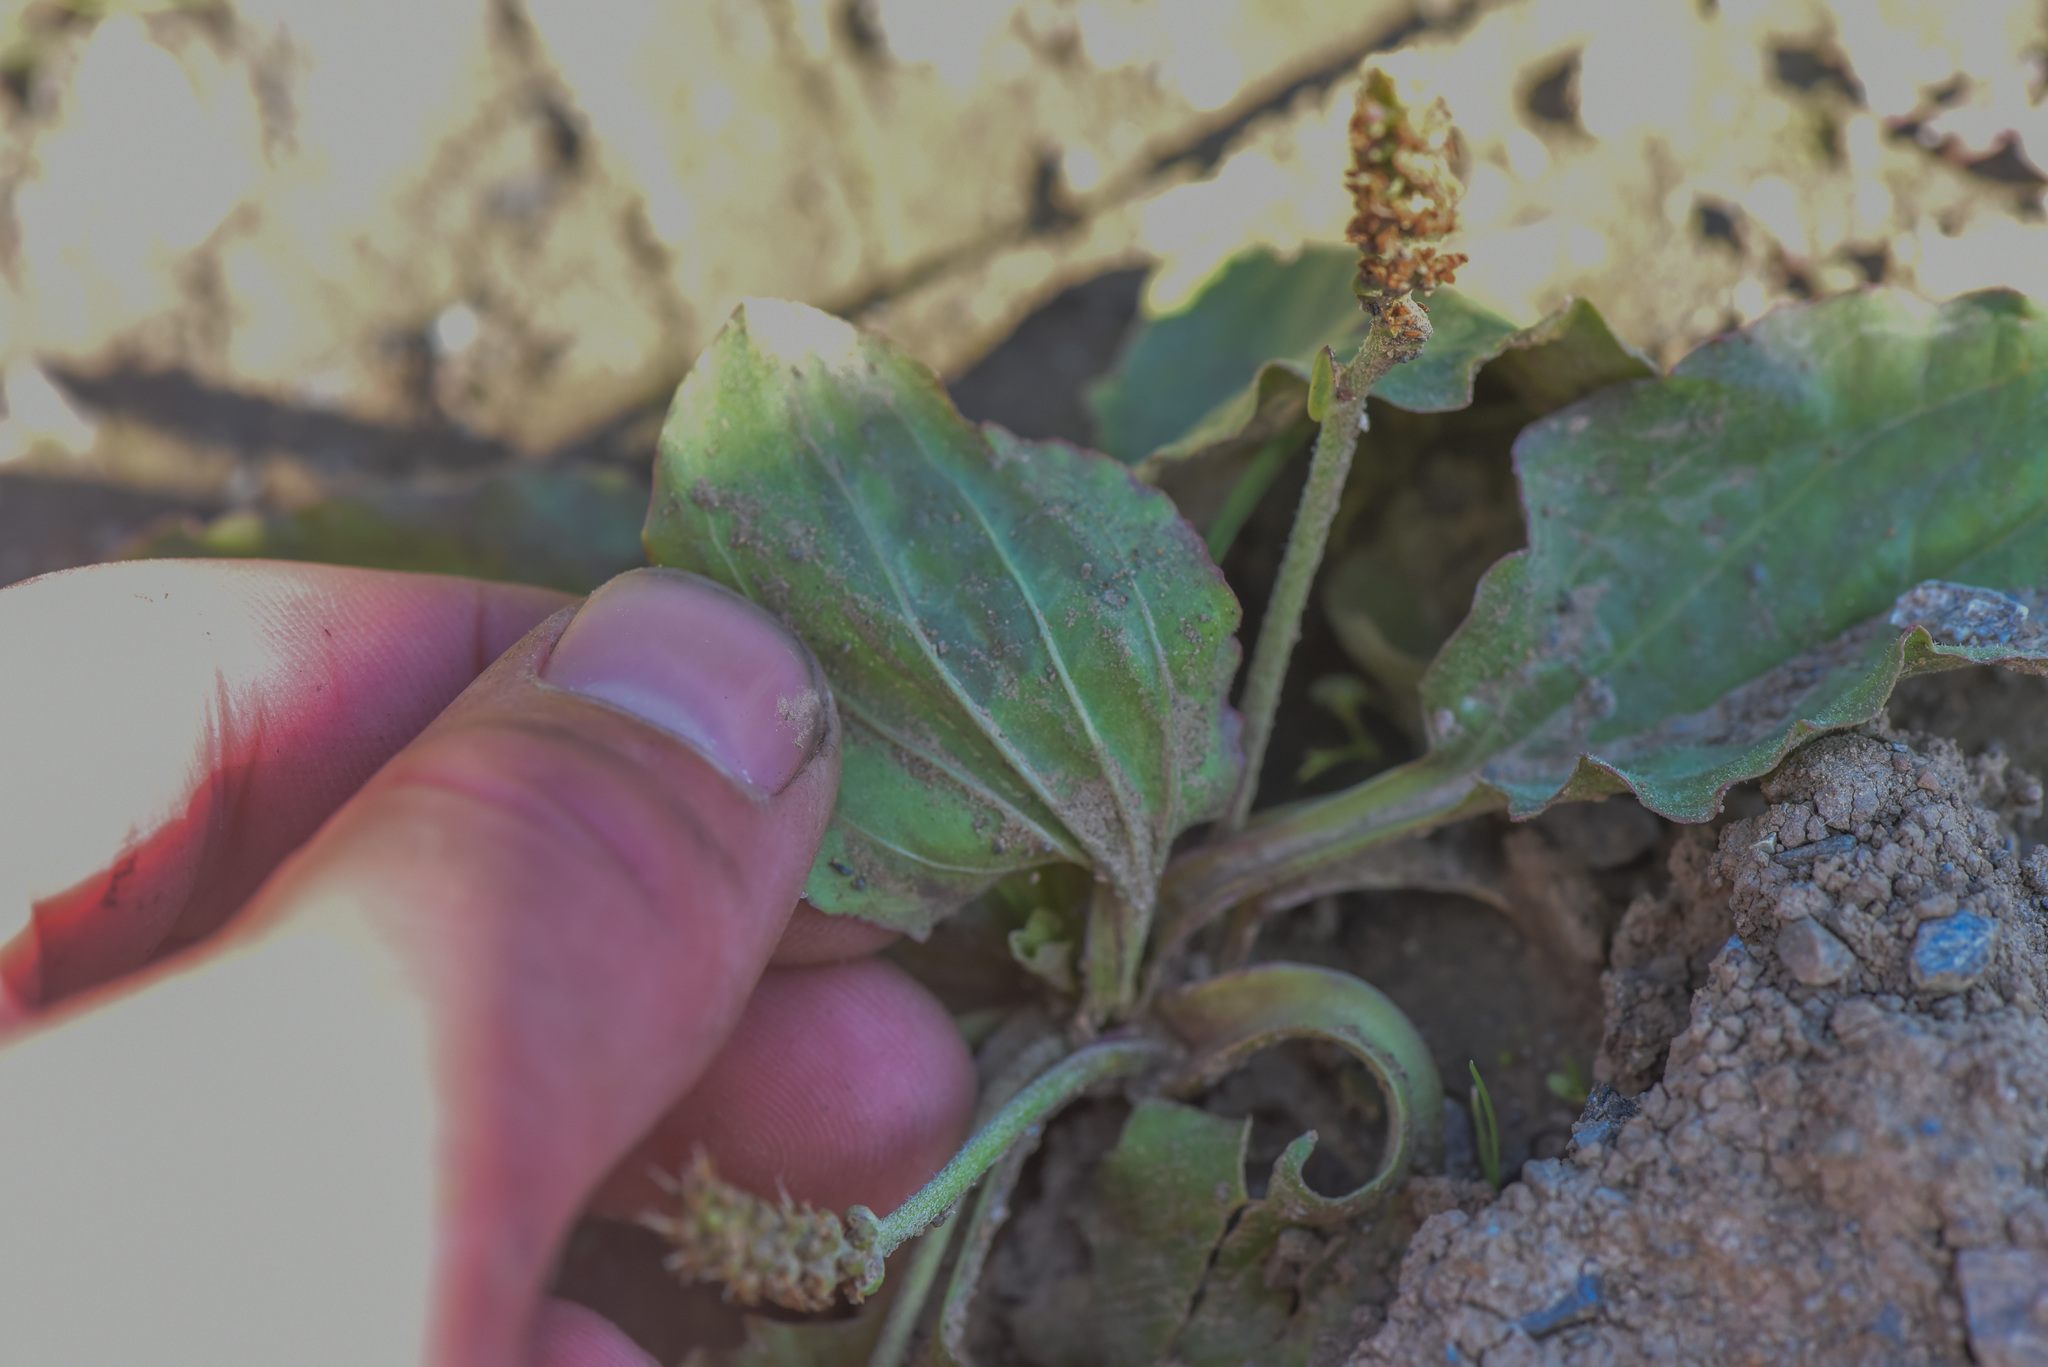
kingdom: Plantae
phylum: Tracheophyta
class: Magnoliopsida
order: Lamiales
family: Plantaginaceae
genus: Plantago
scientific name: Plantago major
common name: Common plantain
